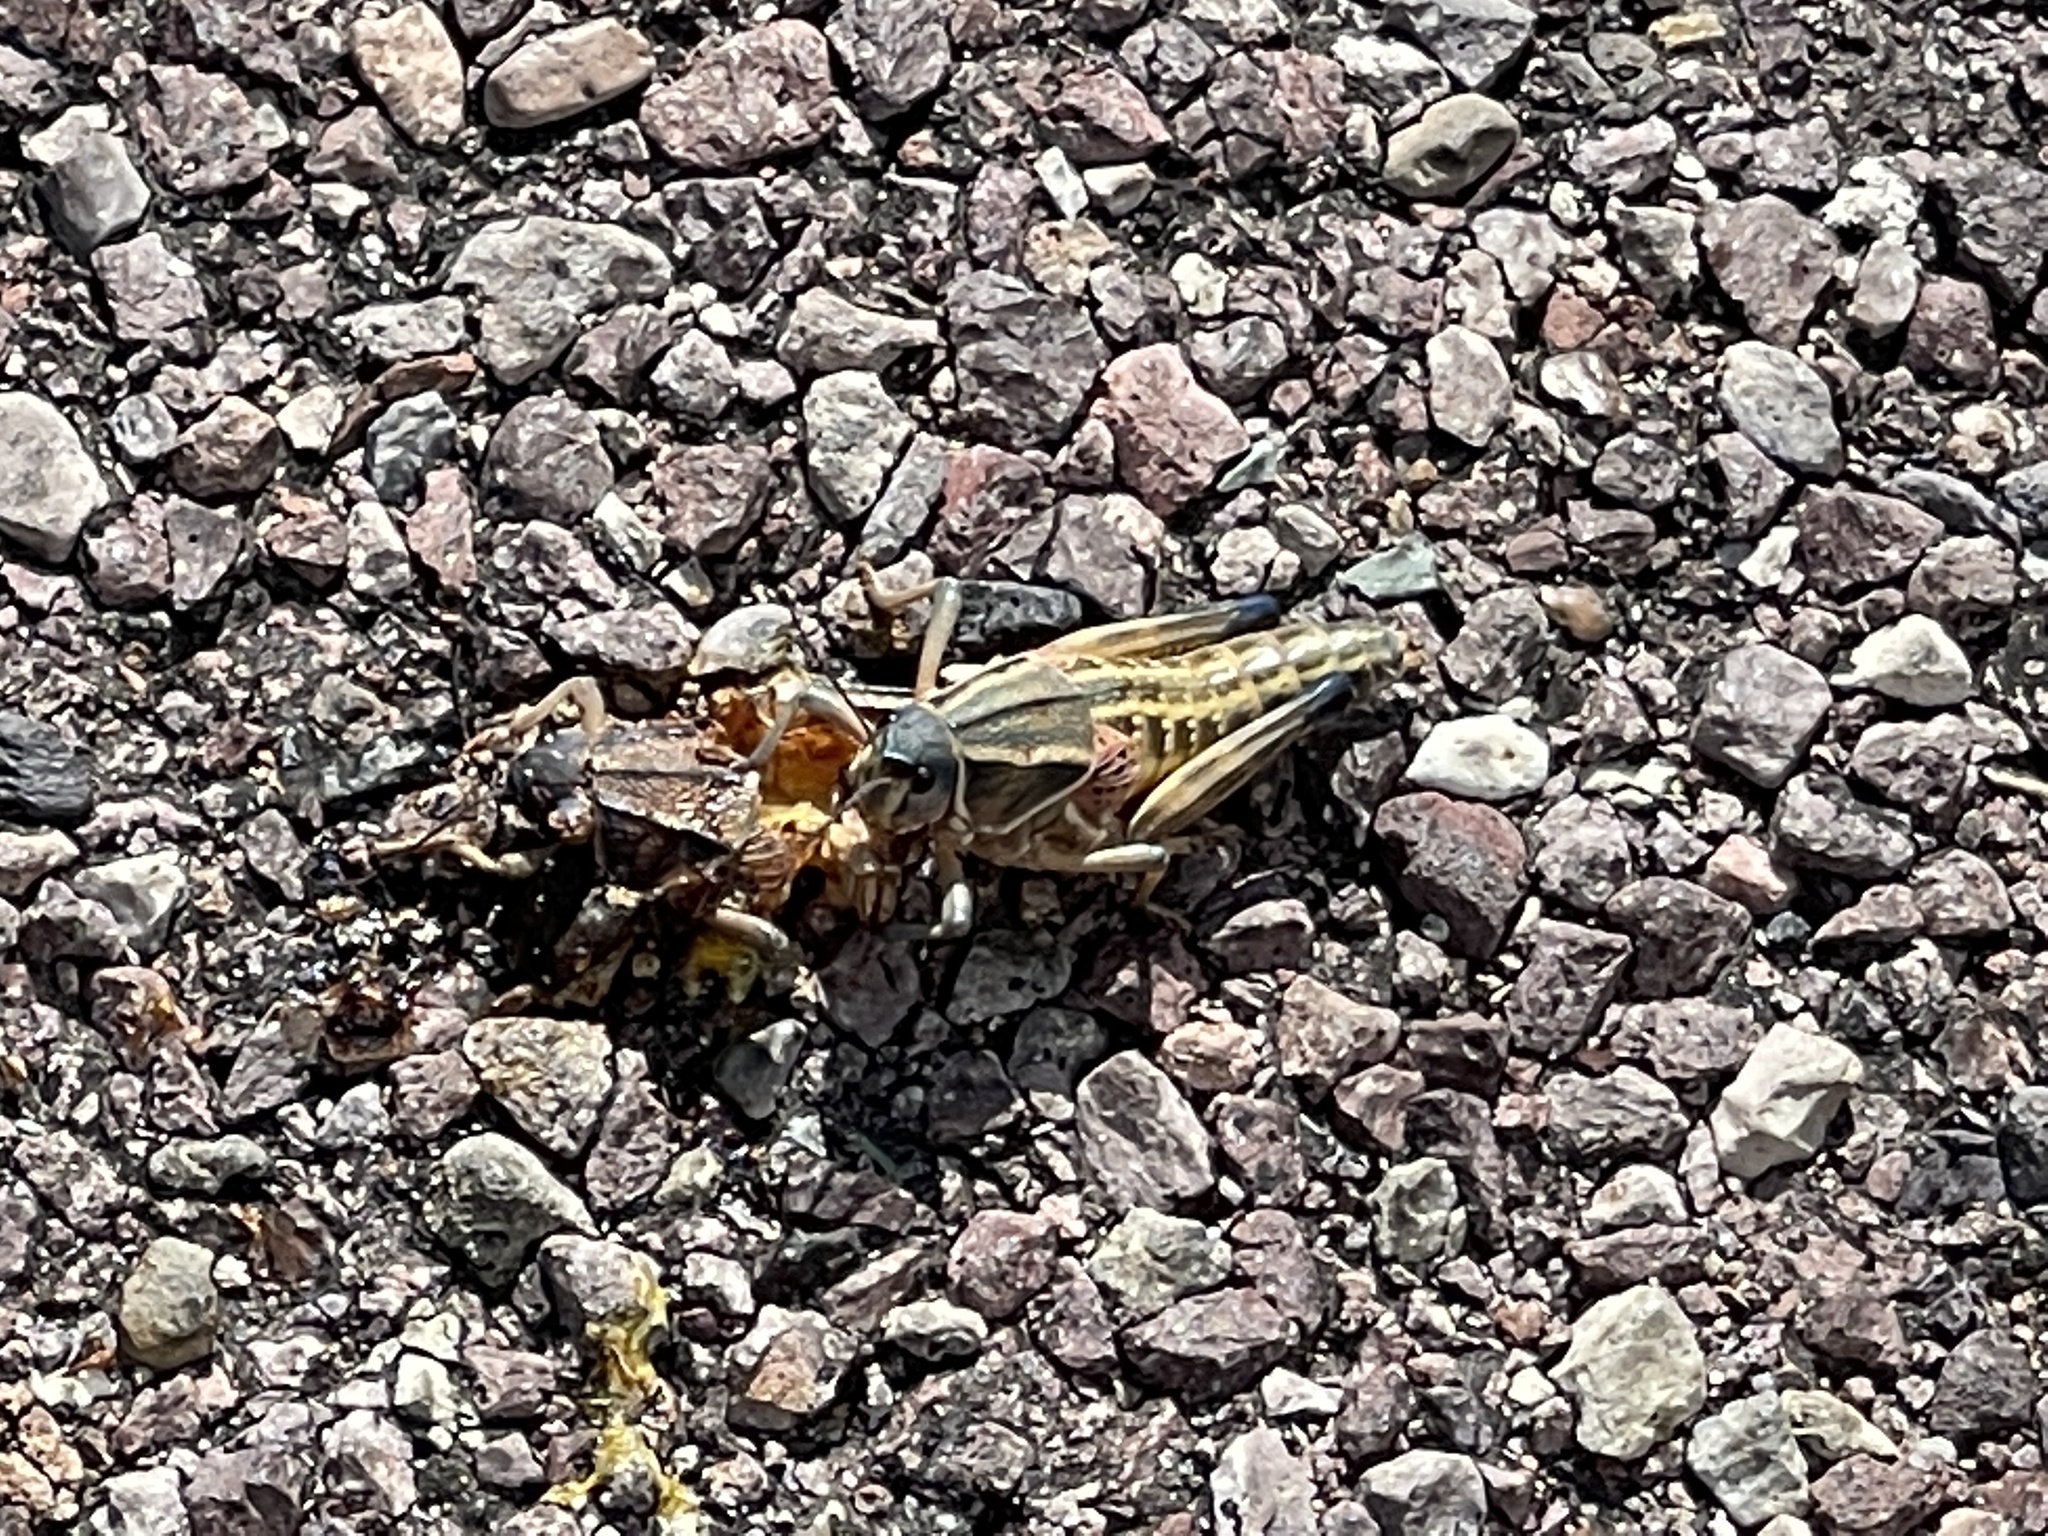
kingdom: Animalia
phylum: Arthropoda
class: Insecta
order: Orthoptera
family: Romaleidae
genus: Brachystola
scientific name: Brachystola magna
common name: Plains lubber grasshopper
